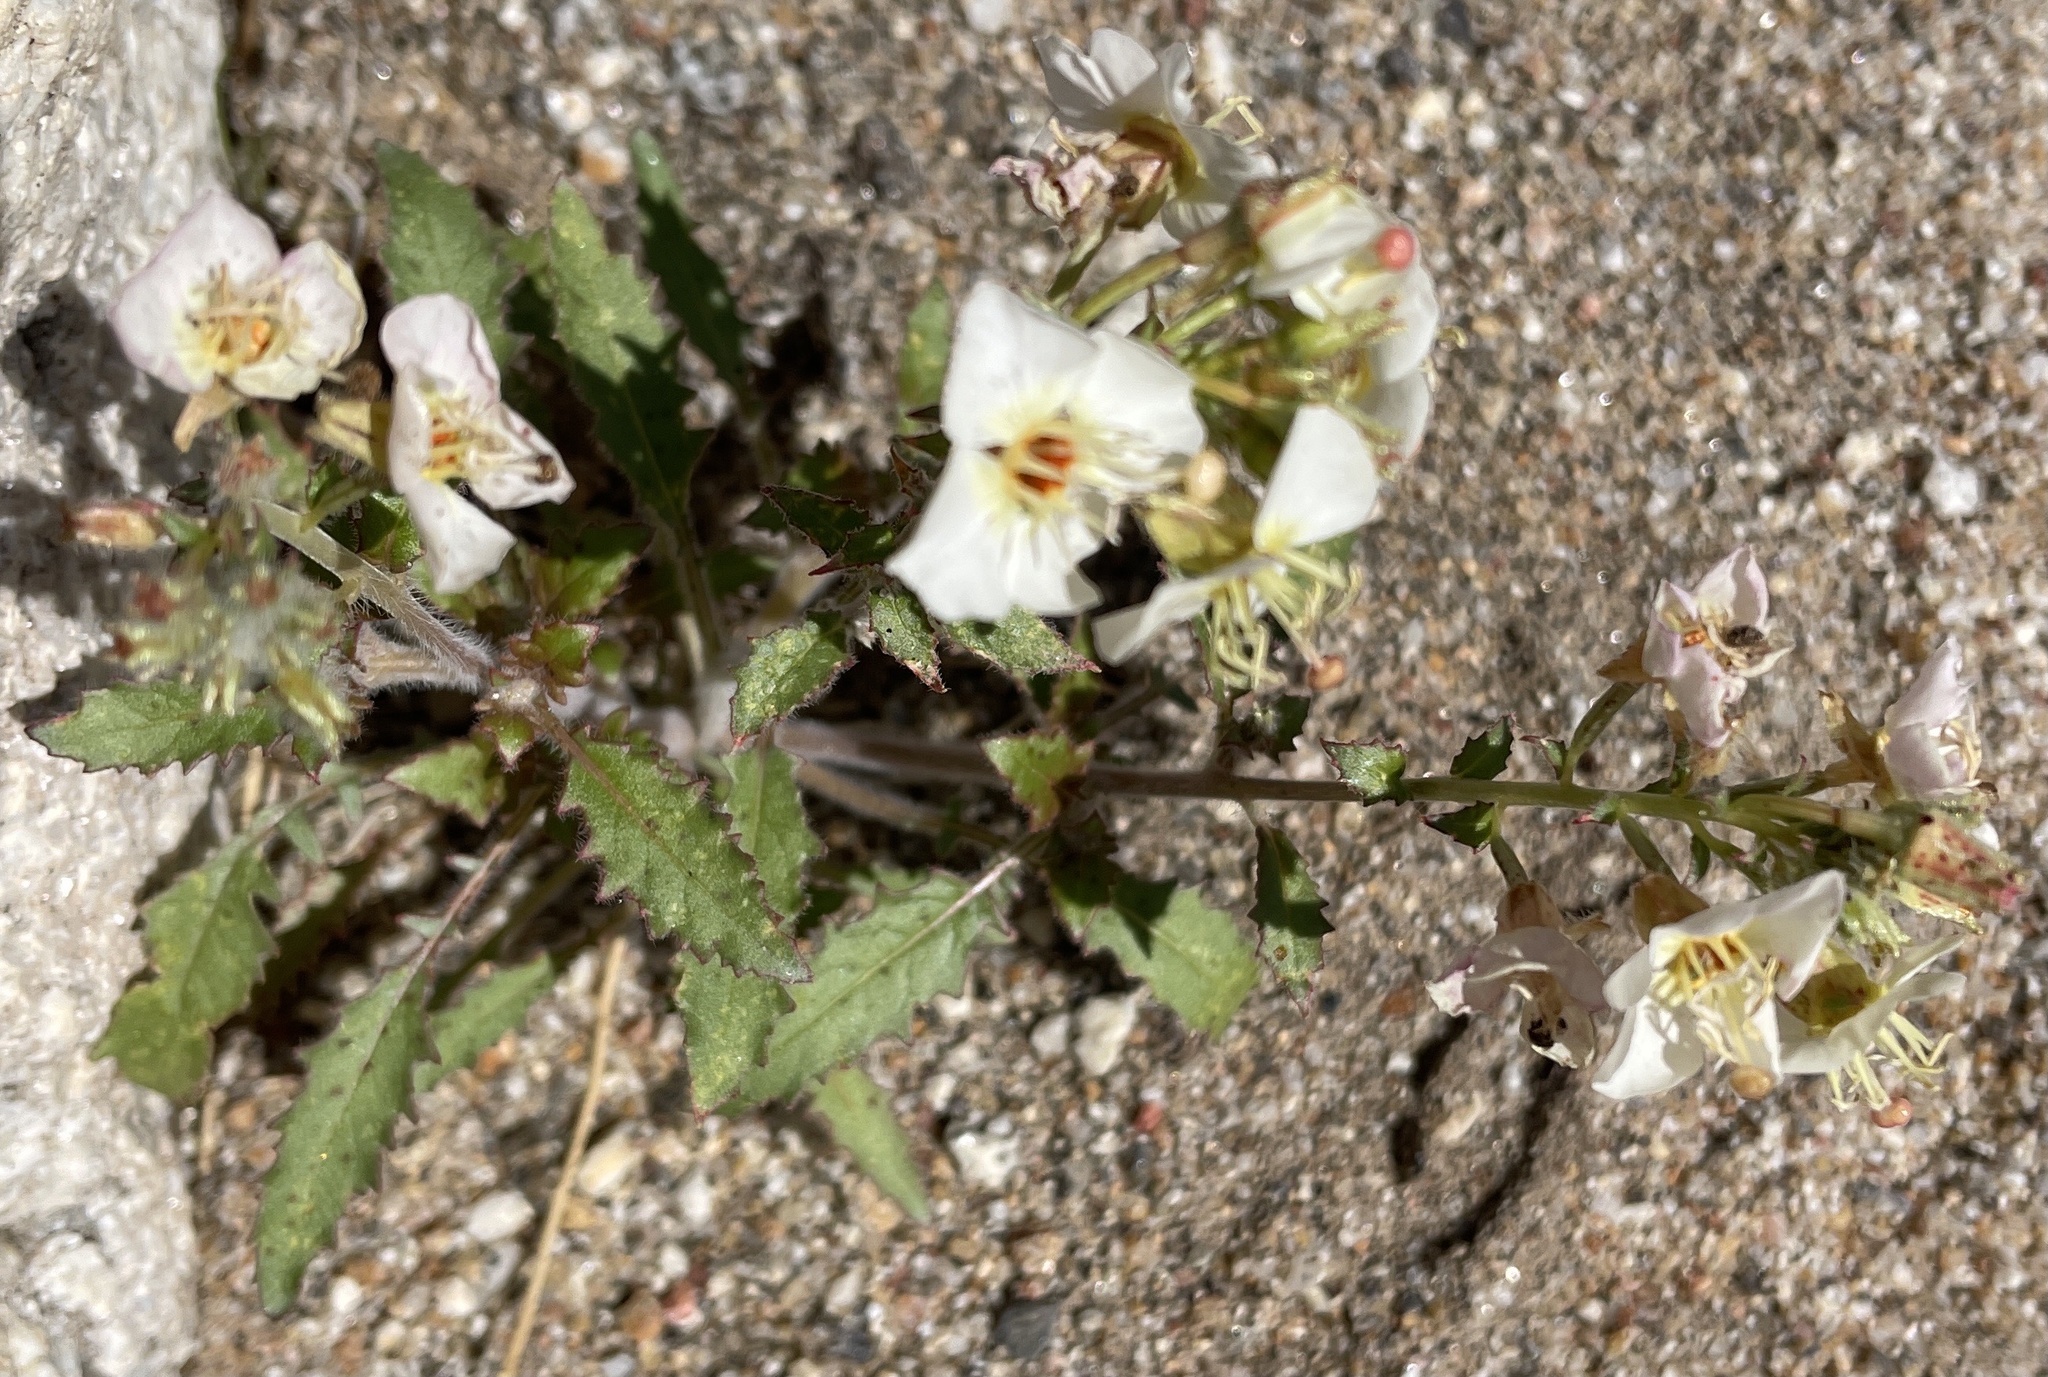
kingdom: Plantae
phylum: Tracheophyta
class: Magnoliopsida
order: Myrtales
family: Onagraceae
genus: Chylismia
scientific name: Chylismia claviformis
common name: Browneyes
